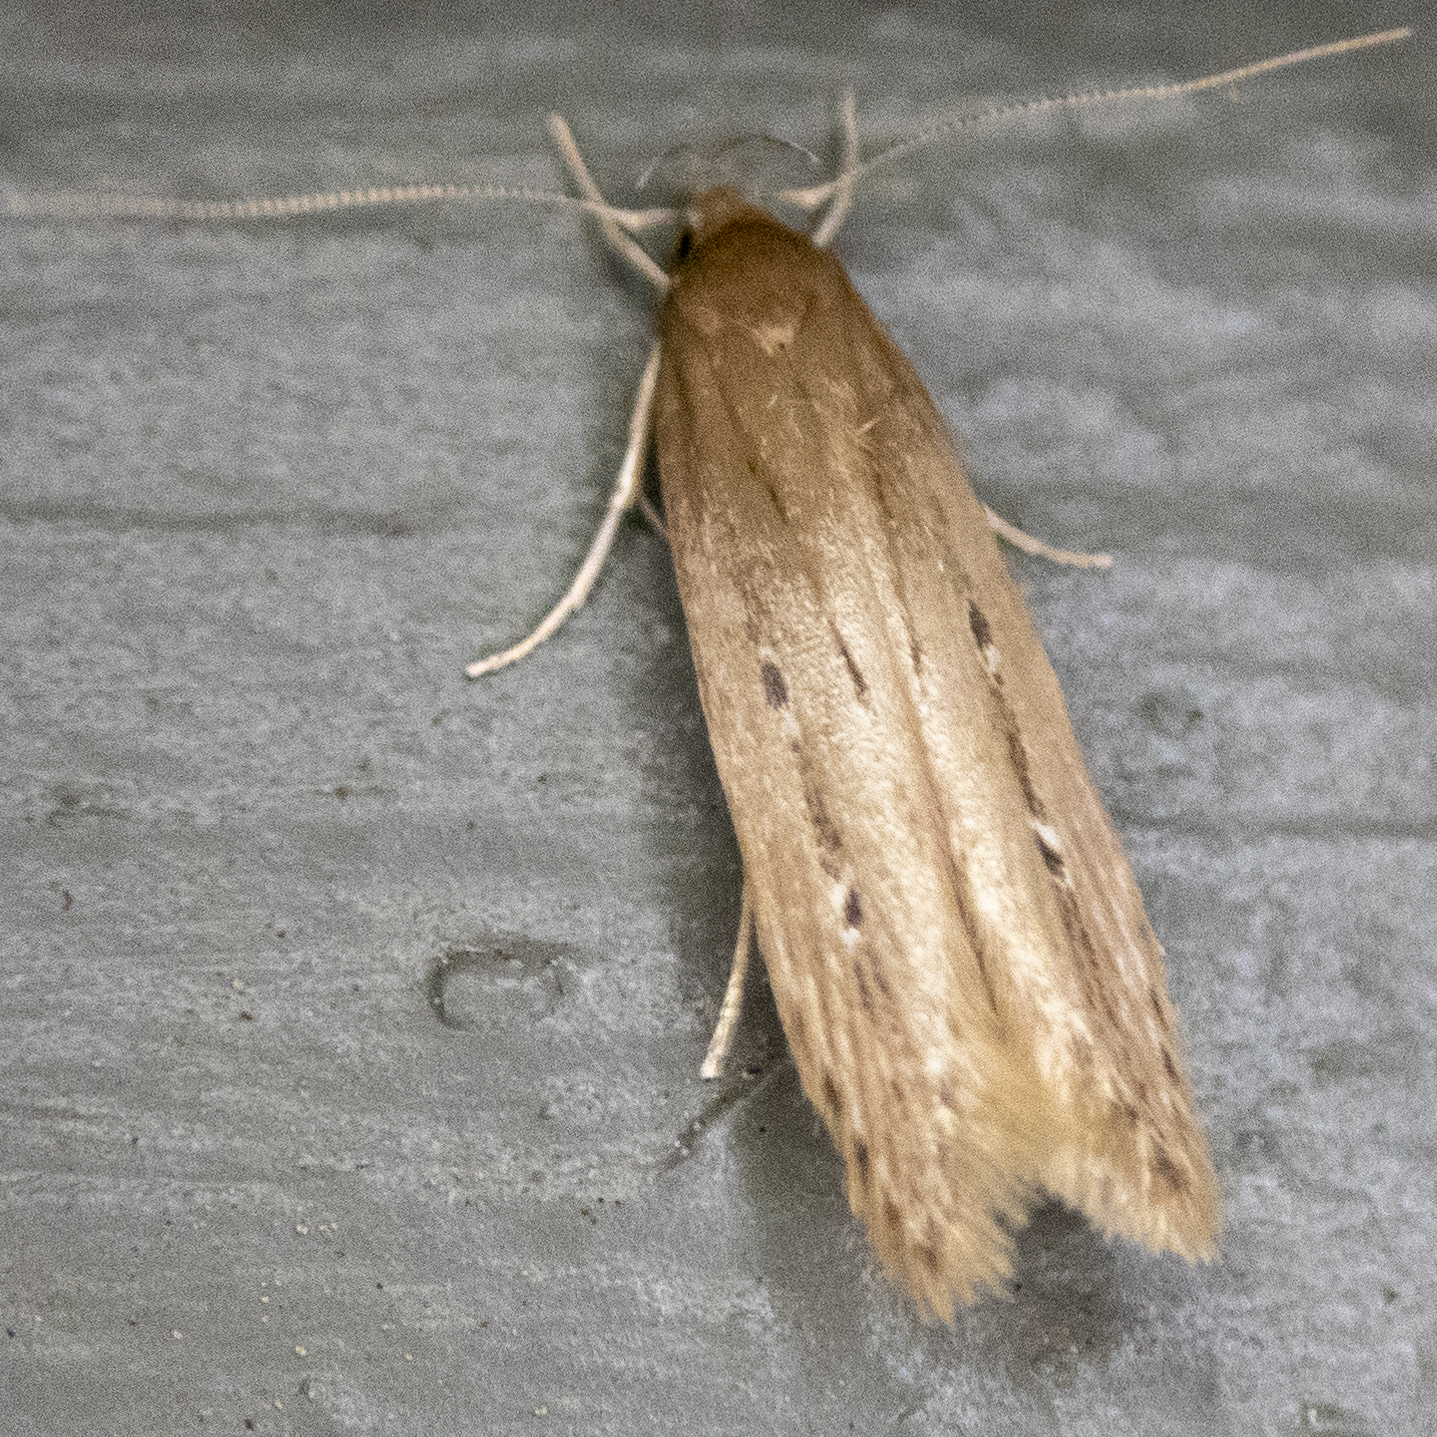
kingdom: Animalia
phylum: Arthropoda
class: Insecta
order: Lepidoptera
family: Cosmopterigidae
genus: Limnaecia
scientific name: Limnaecia phragmitella
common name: Bulrush cosmet
